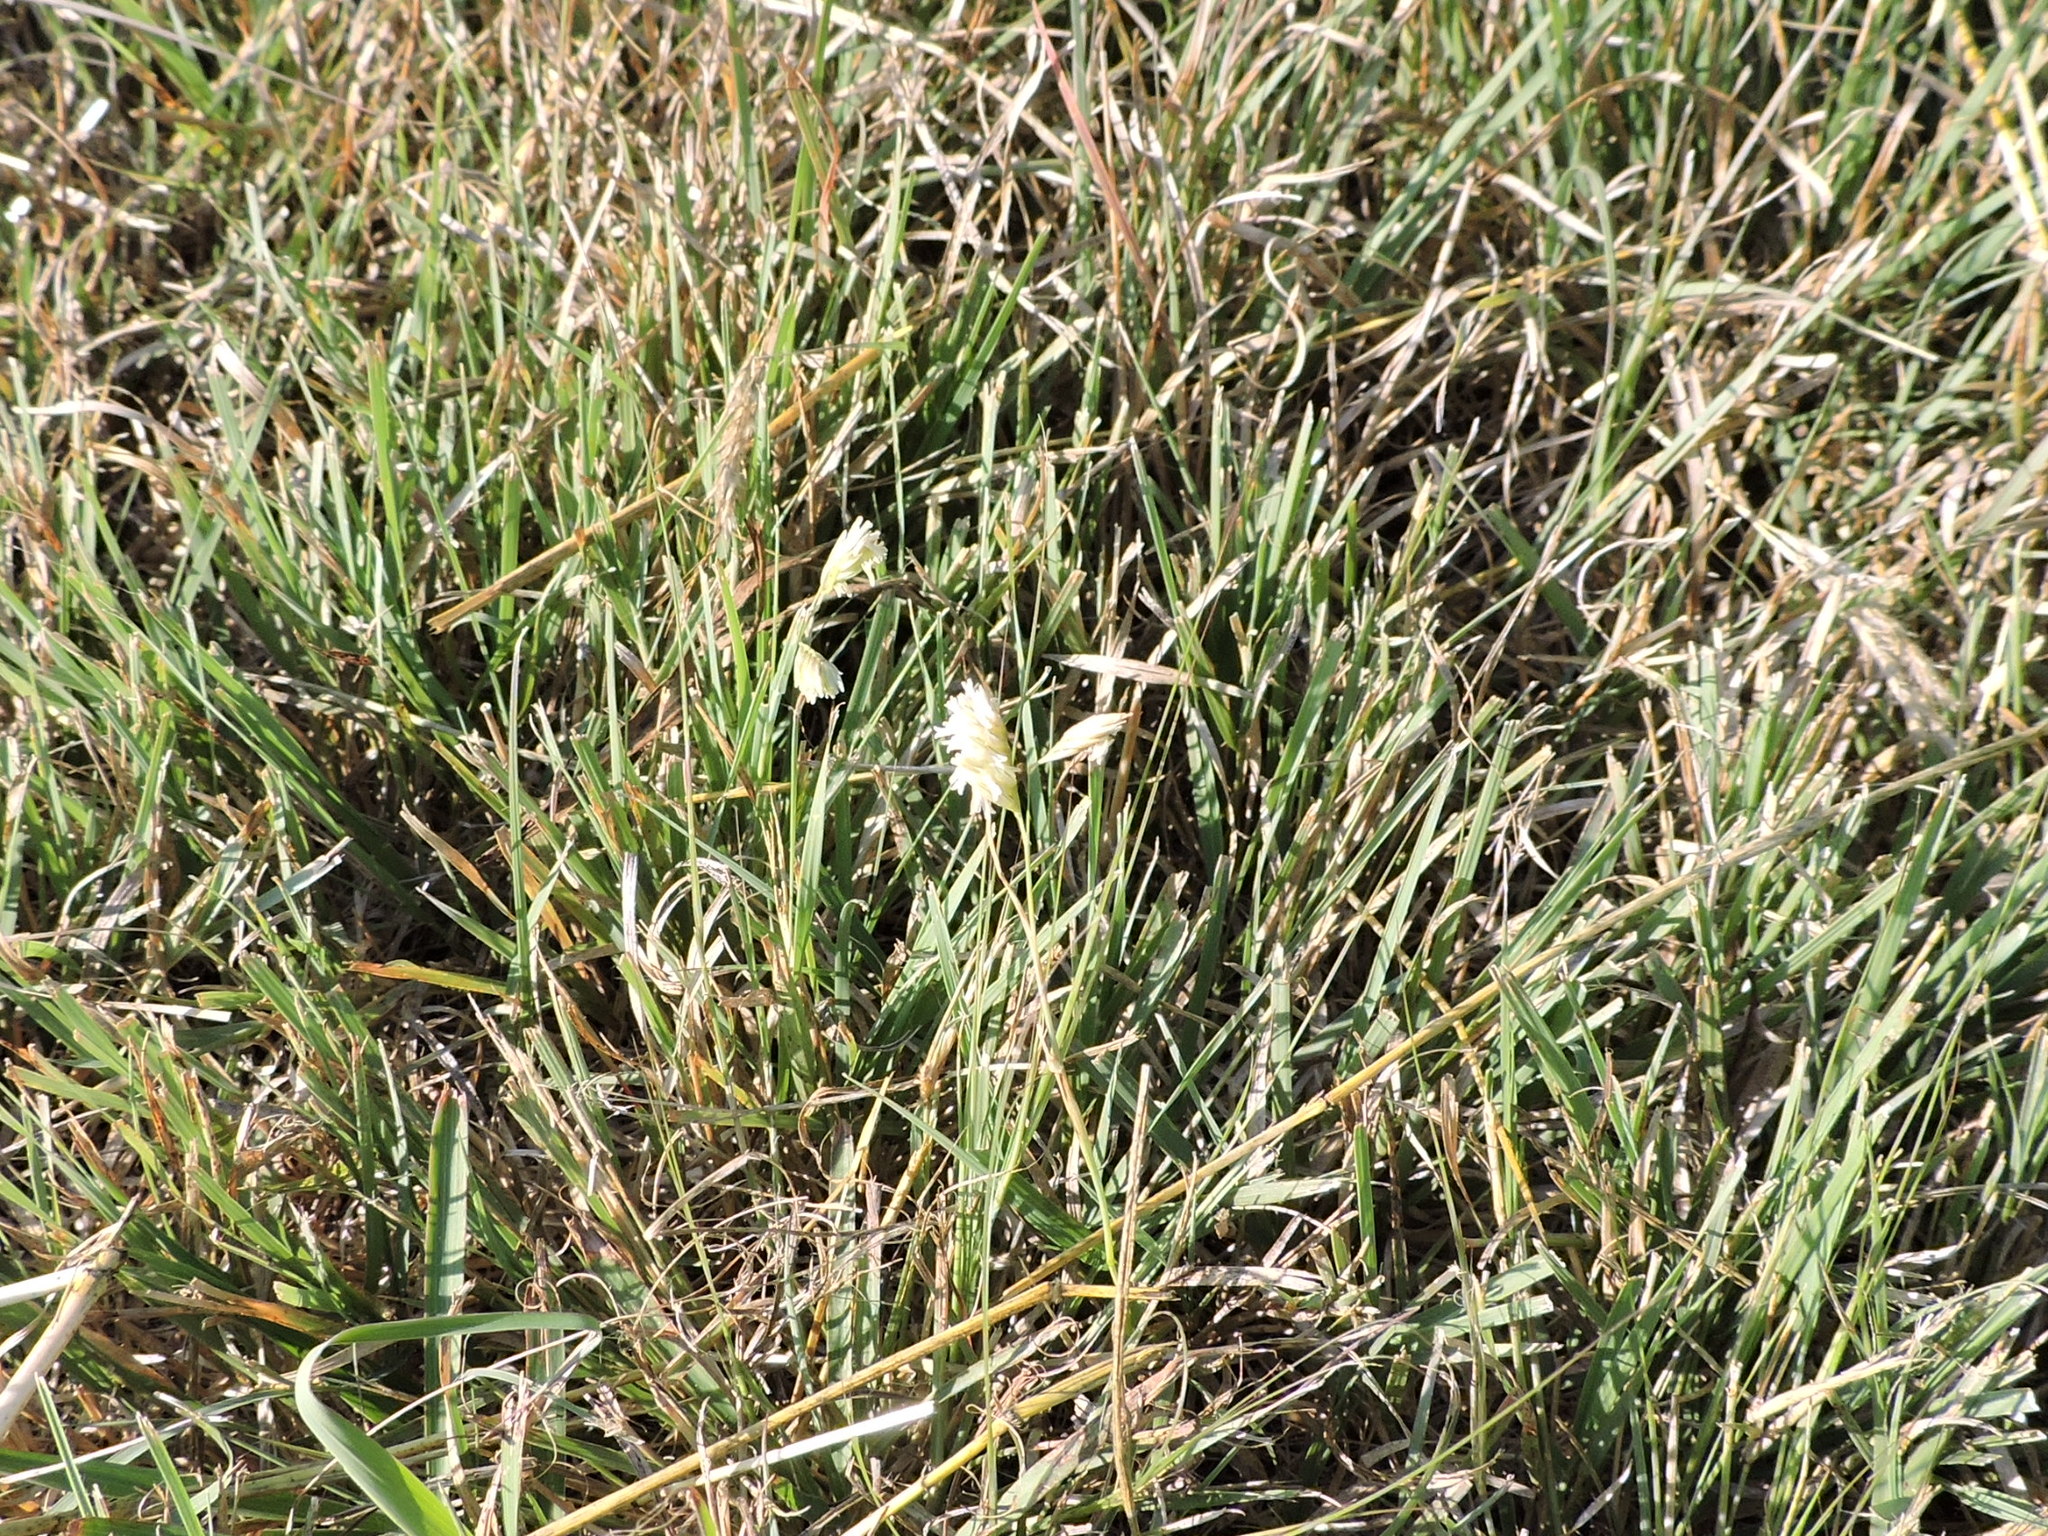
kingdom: Plantae
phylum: Tracheophyta
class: Liliopsida
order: Poales
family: Poaceae
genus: Bouteloua
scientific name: Bouteloua dactyloides
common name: Buffalo grass
